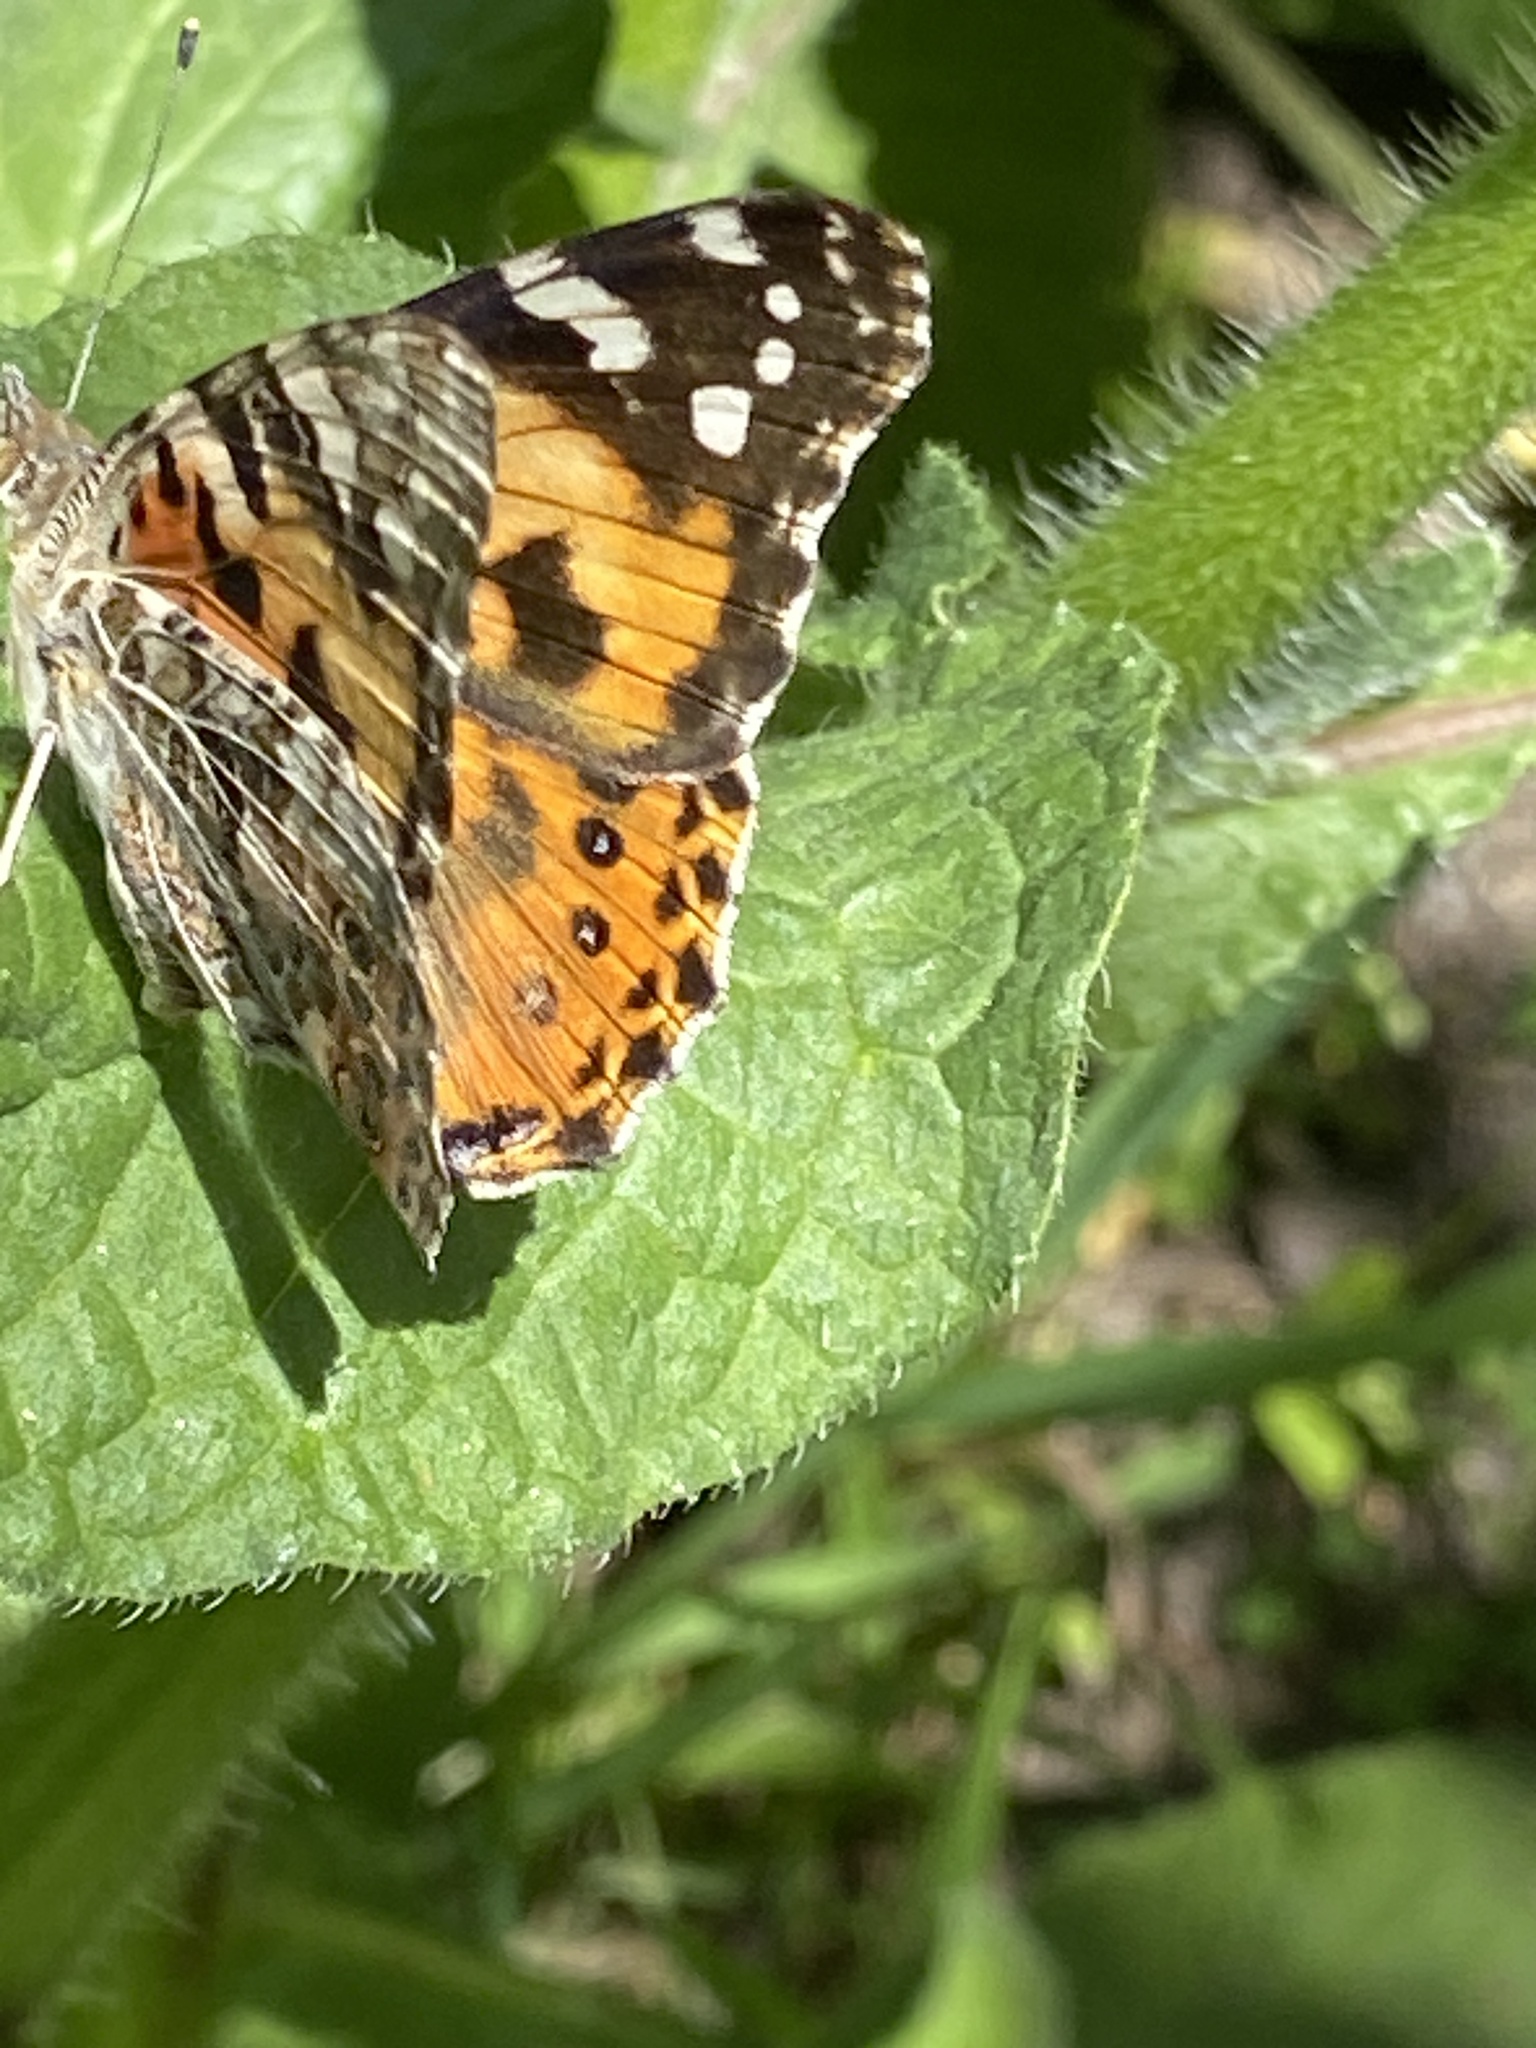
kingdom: Animalia
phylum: Arthropoda
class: Insecta
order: Lepidoptera
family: Nymphalidae
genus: Vanessa
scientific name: Vanessa cardui
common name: Painted lady
